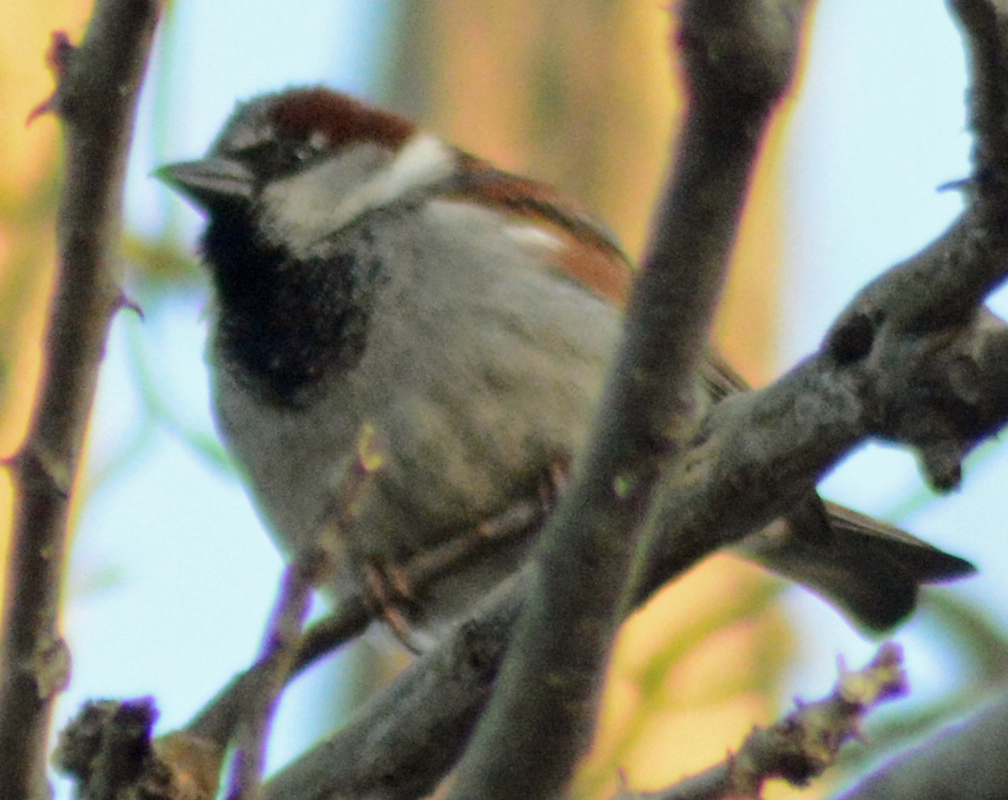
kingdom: Animalia
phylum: Chordata
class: Aves
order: Passeriformes
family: Passeridae
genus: Passer
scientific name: Passer domesticus
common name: House sparrow
